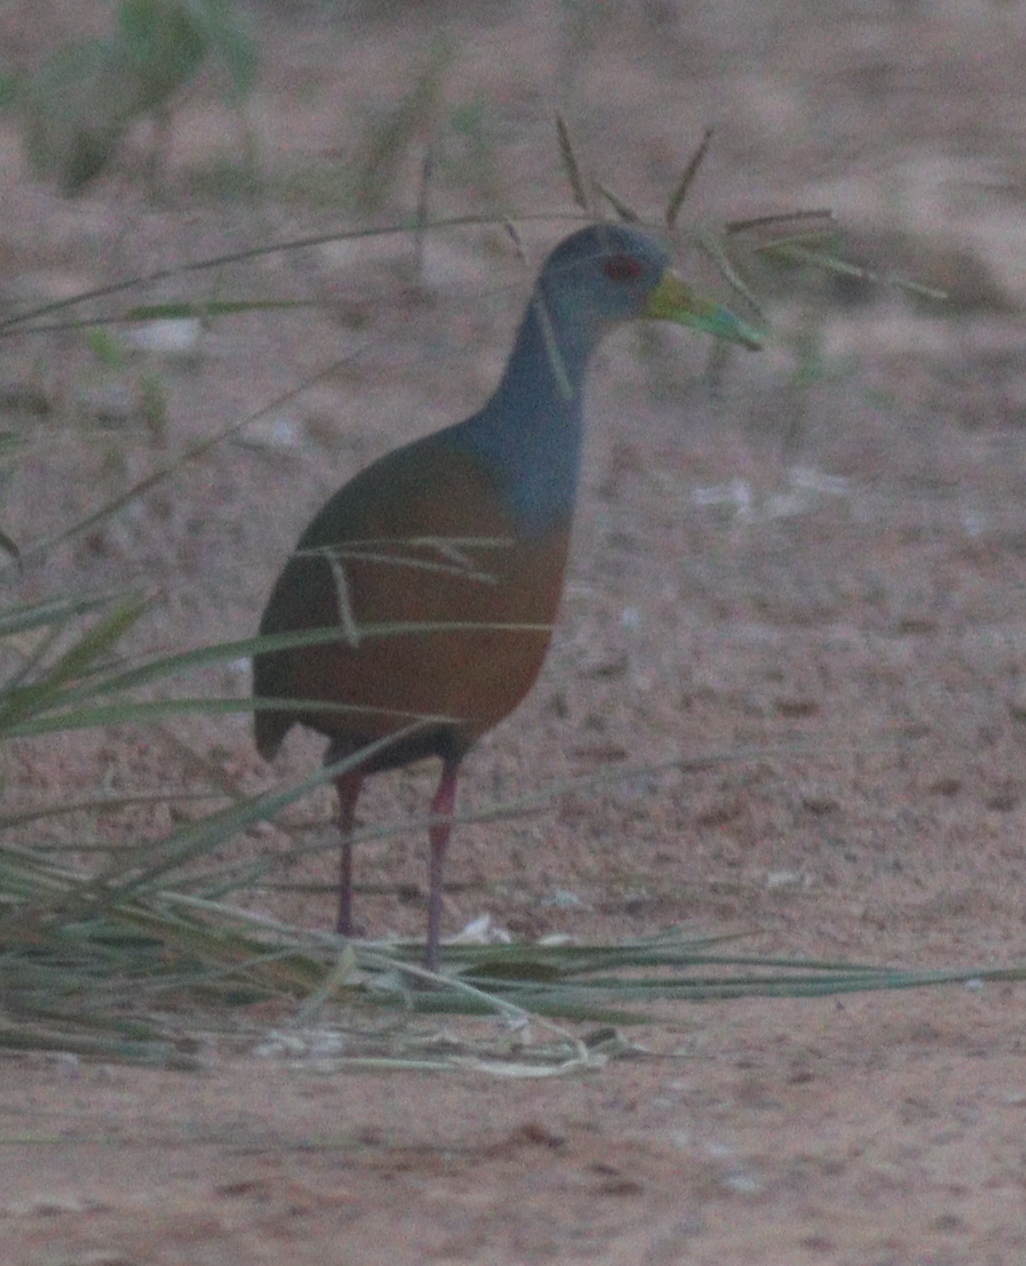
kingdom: Animalia
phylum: Chordata
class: Aves
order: Gruiformes
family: Rallidae
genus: Aramides
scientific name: Aramides cajanea
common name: Gray-necked wood-rail
